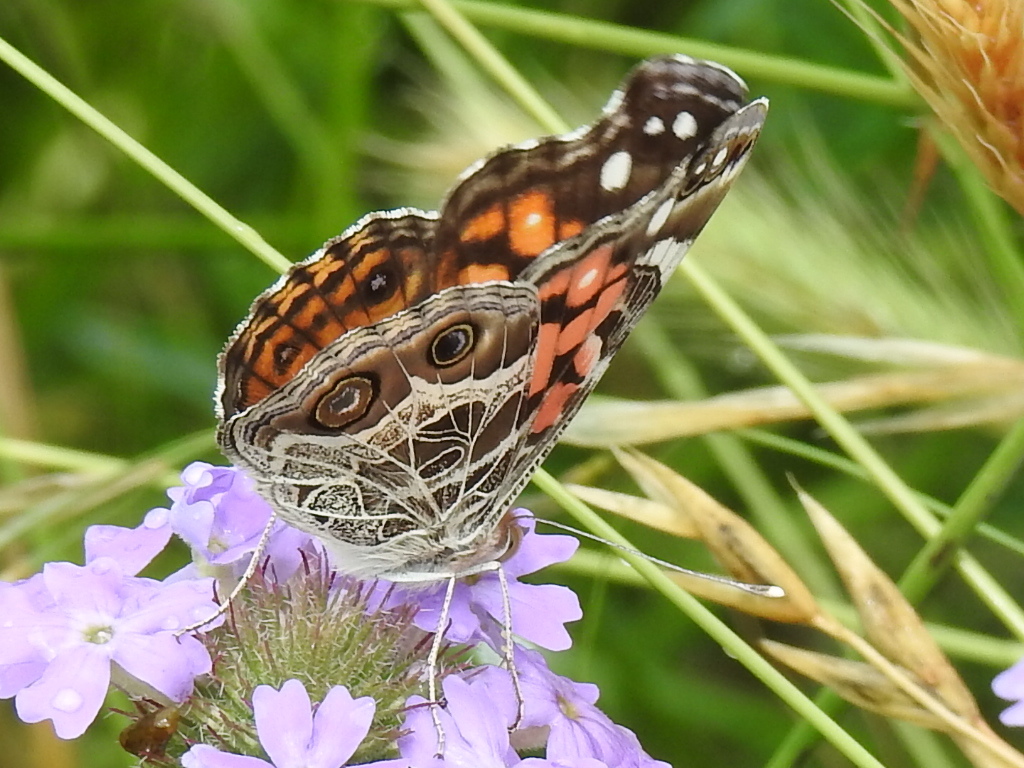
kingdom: Animalia
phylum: Arthropoda
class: Insecta
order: Lepidoptera
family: Nymphalidae
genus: Vanessa
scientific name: Vanessa virginiensis
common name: American lady
